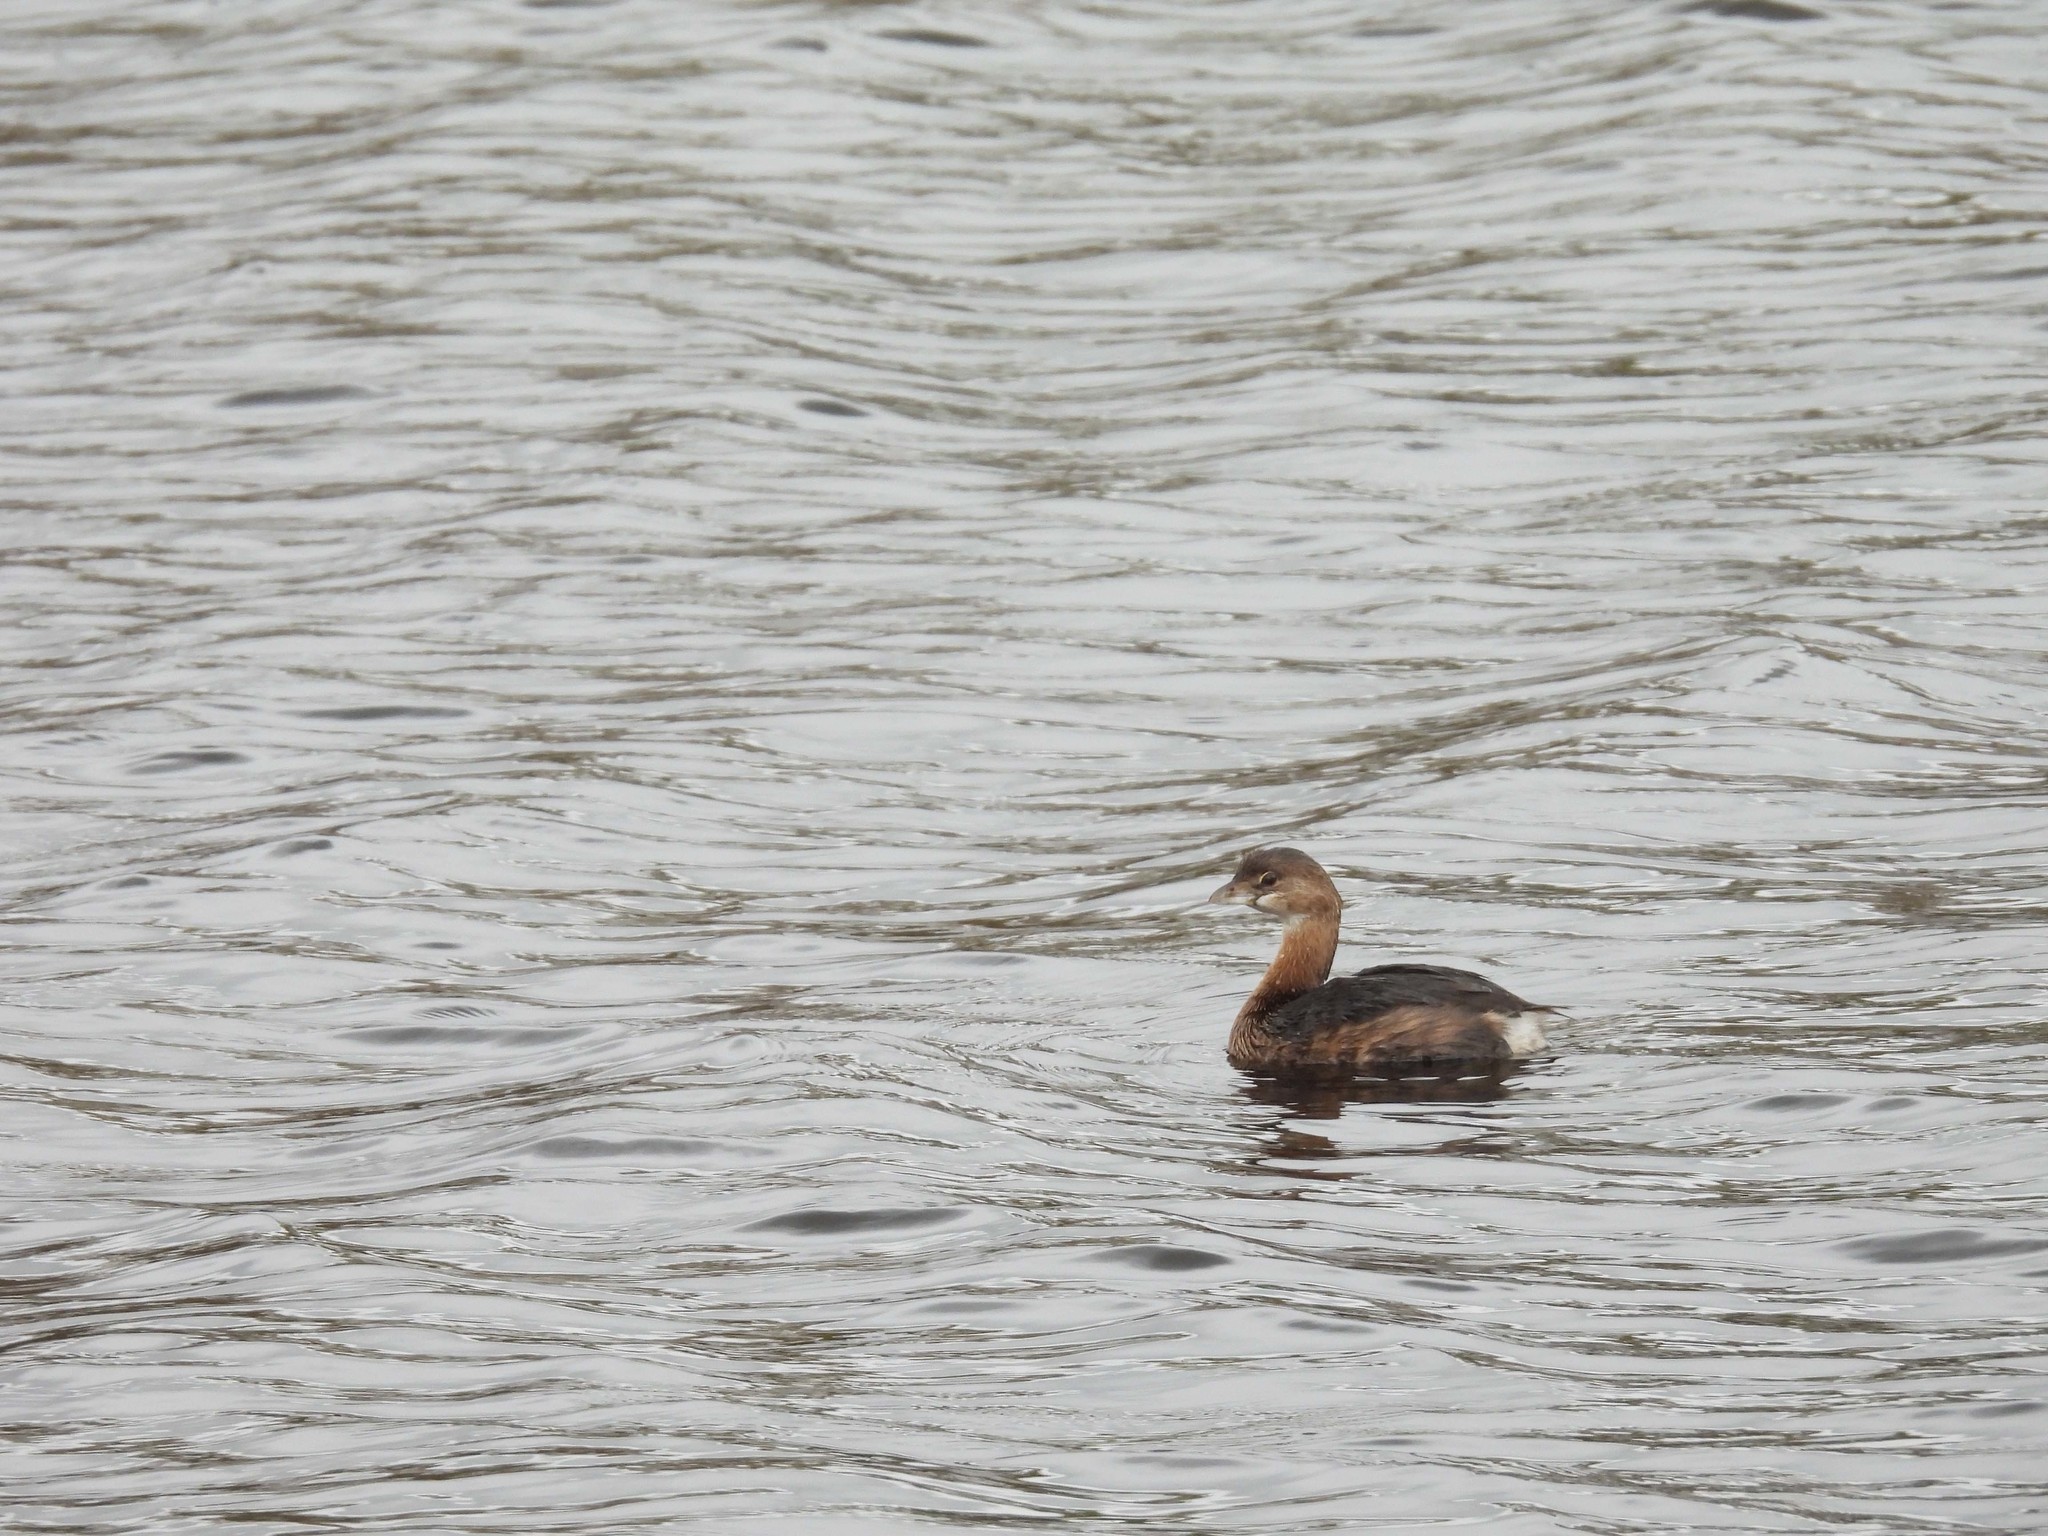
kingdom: Animalia
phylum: Chordata
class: Aves
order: Podicipediformes
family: Podicipedidae
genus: Podilymbus
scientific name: Podilymbus podiceps
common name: Pied-billed grebe
